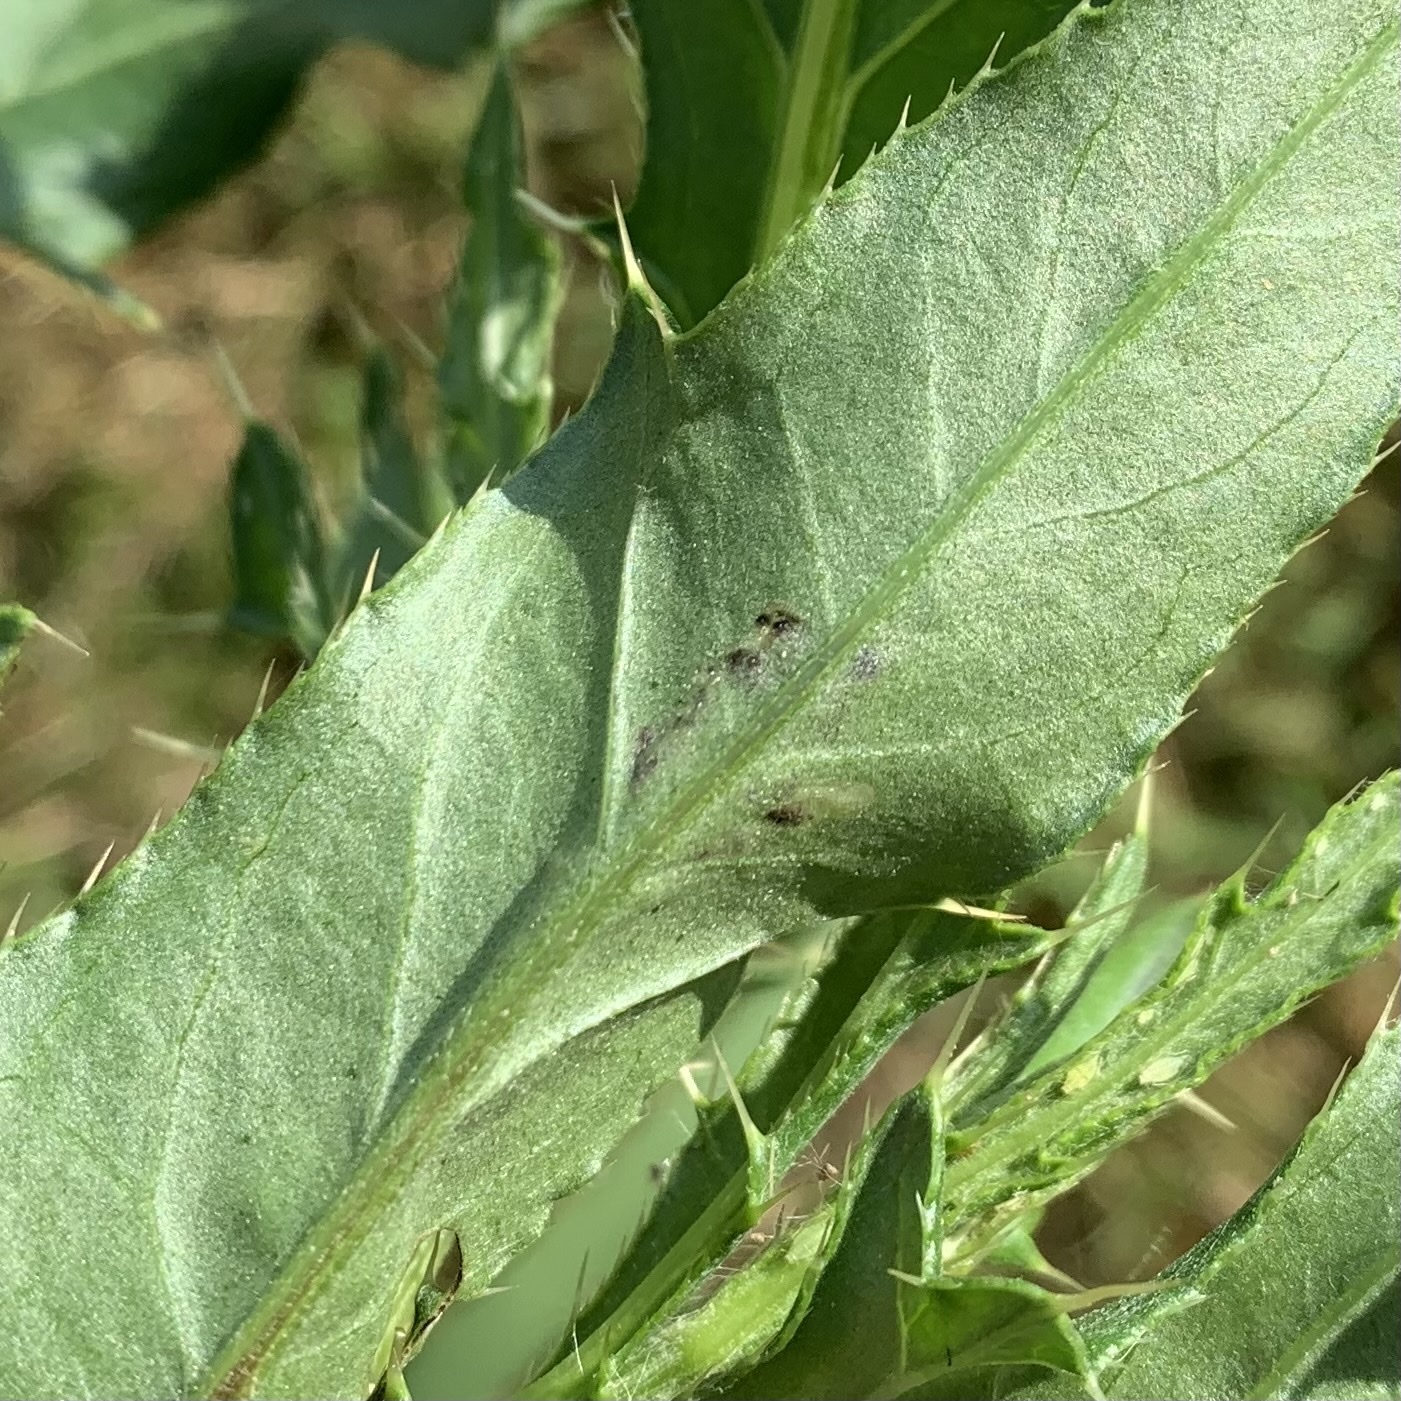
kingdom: Animalia
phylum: Arthropoda
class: Insecta
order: Lepidoptera
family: Gelechiidae
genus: Scrobipalpa
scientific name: Scrobipalpa acuminatella
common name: Pointed groundling
